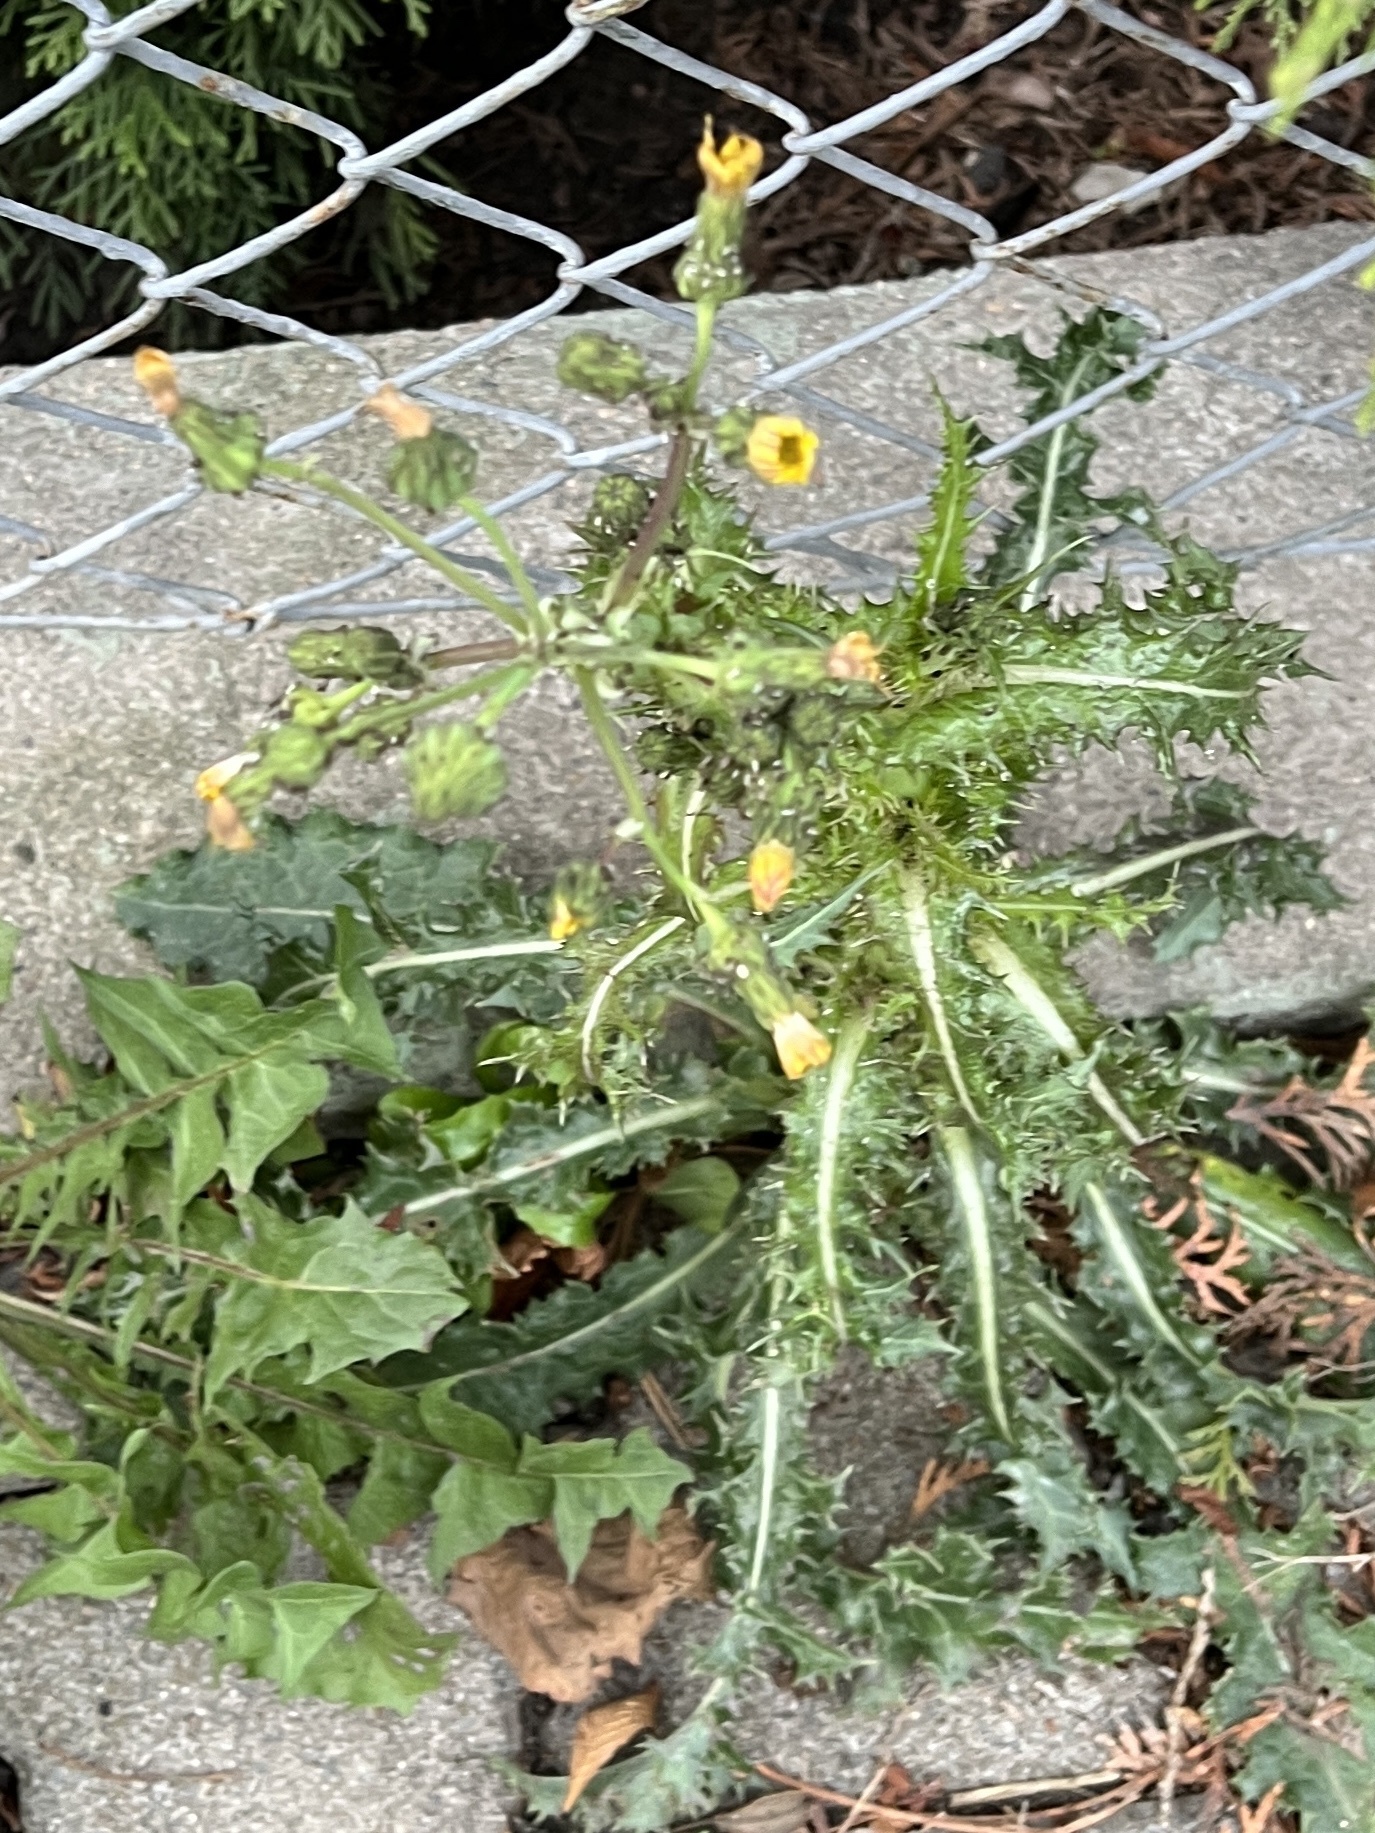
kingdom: Plantae
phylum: Tracheophyta
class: Magnoliopsida
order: Asterales
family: Asteraceae
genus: Sonchus
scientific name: Sonchus asper
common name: Prickly sow-thistle
